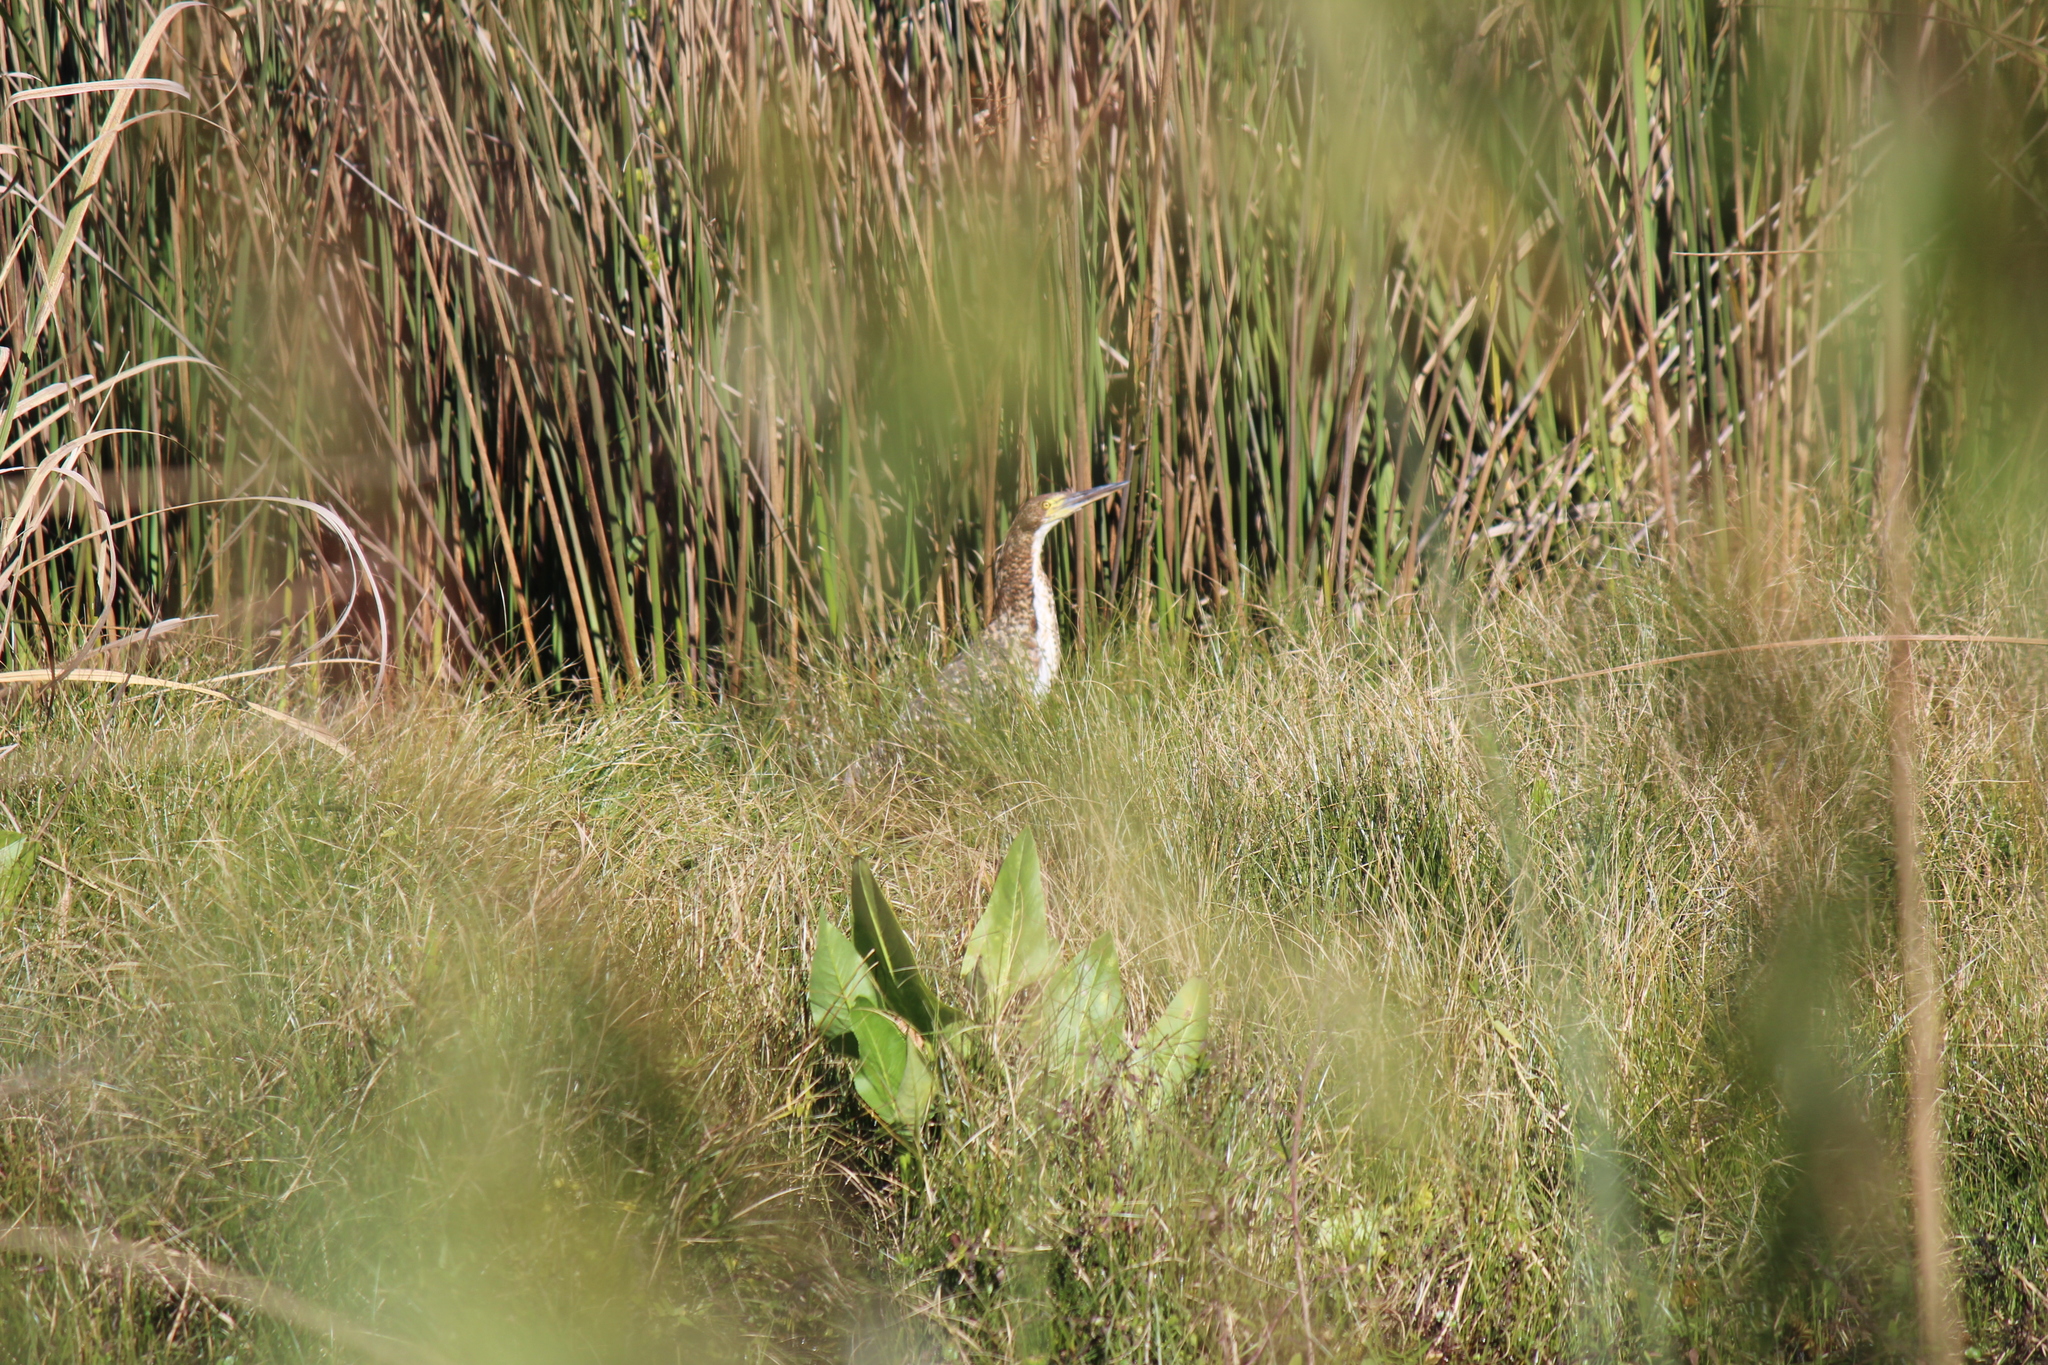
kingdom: Animalia
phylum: Chordata
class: Aves
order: Pelecaniformes
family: Ardeidae
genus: Tigrisoma
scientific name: Tigrisoma lineatum
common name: Rufescent tiger-heron
